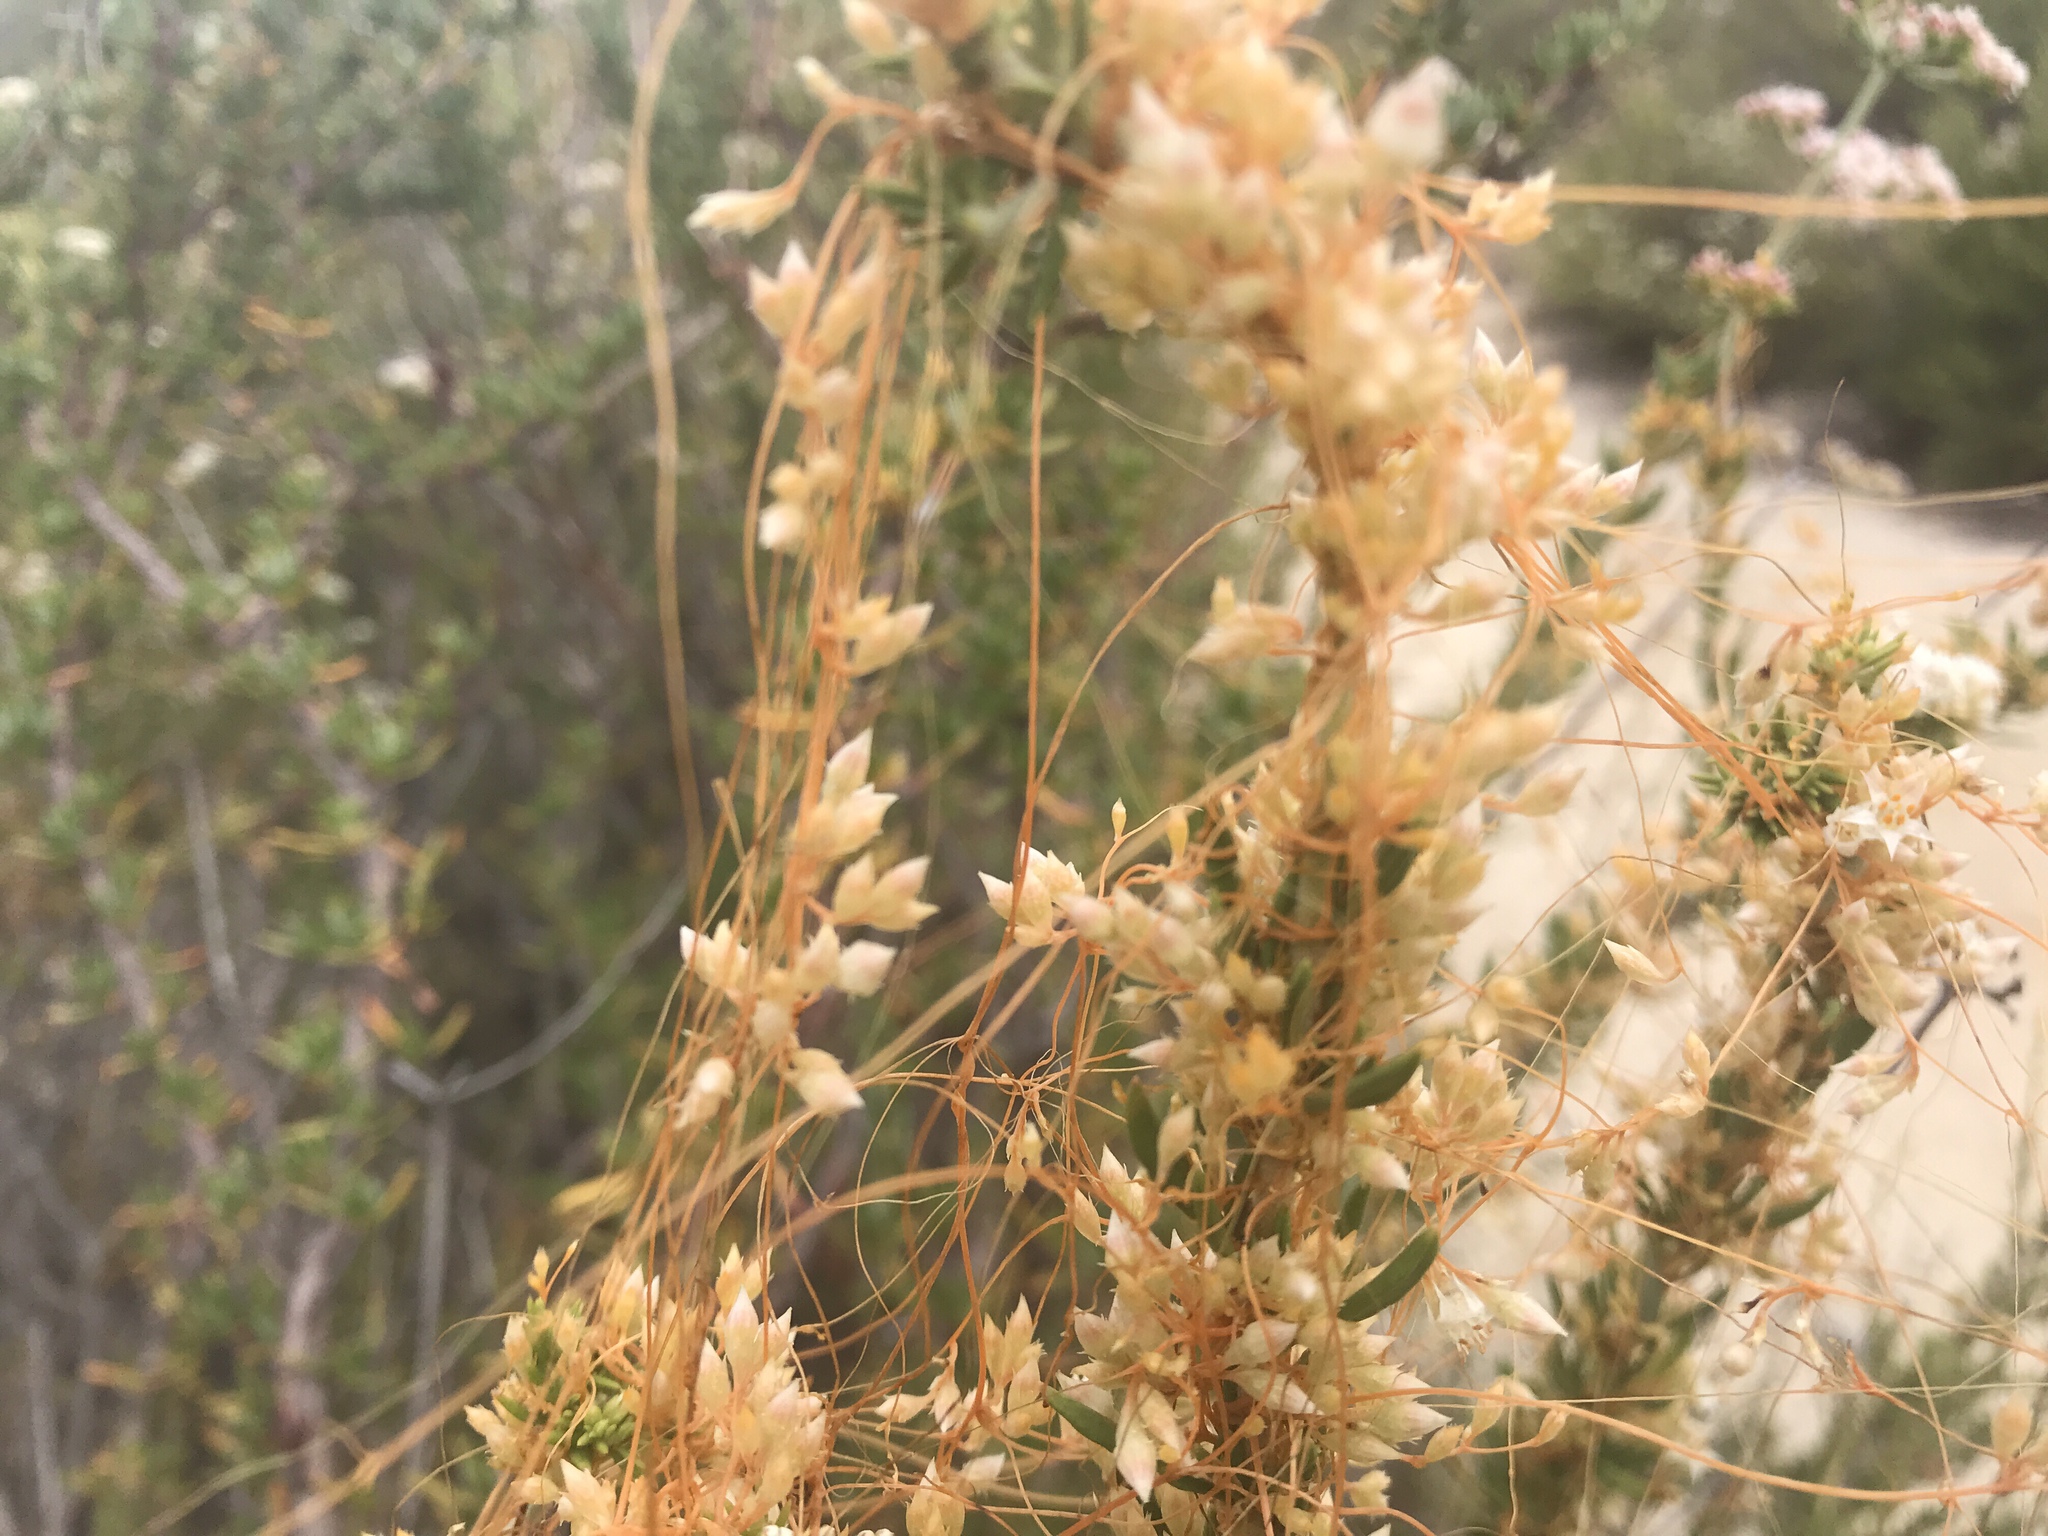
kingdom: Plantae
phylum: Tracheophyta
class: Magnoliopsida
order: Solanales
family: Convolvulaceae
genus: Cuscuta
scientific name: Cuscuta californica
